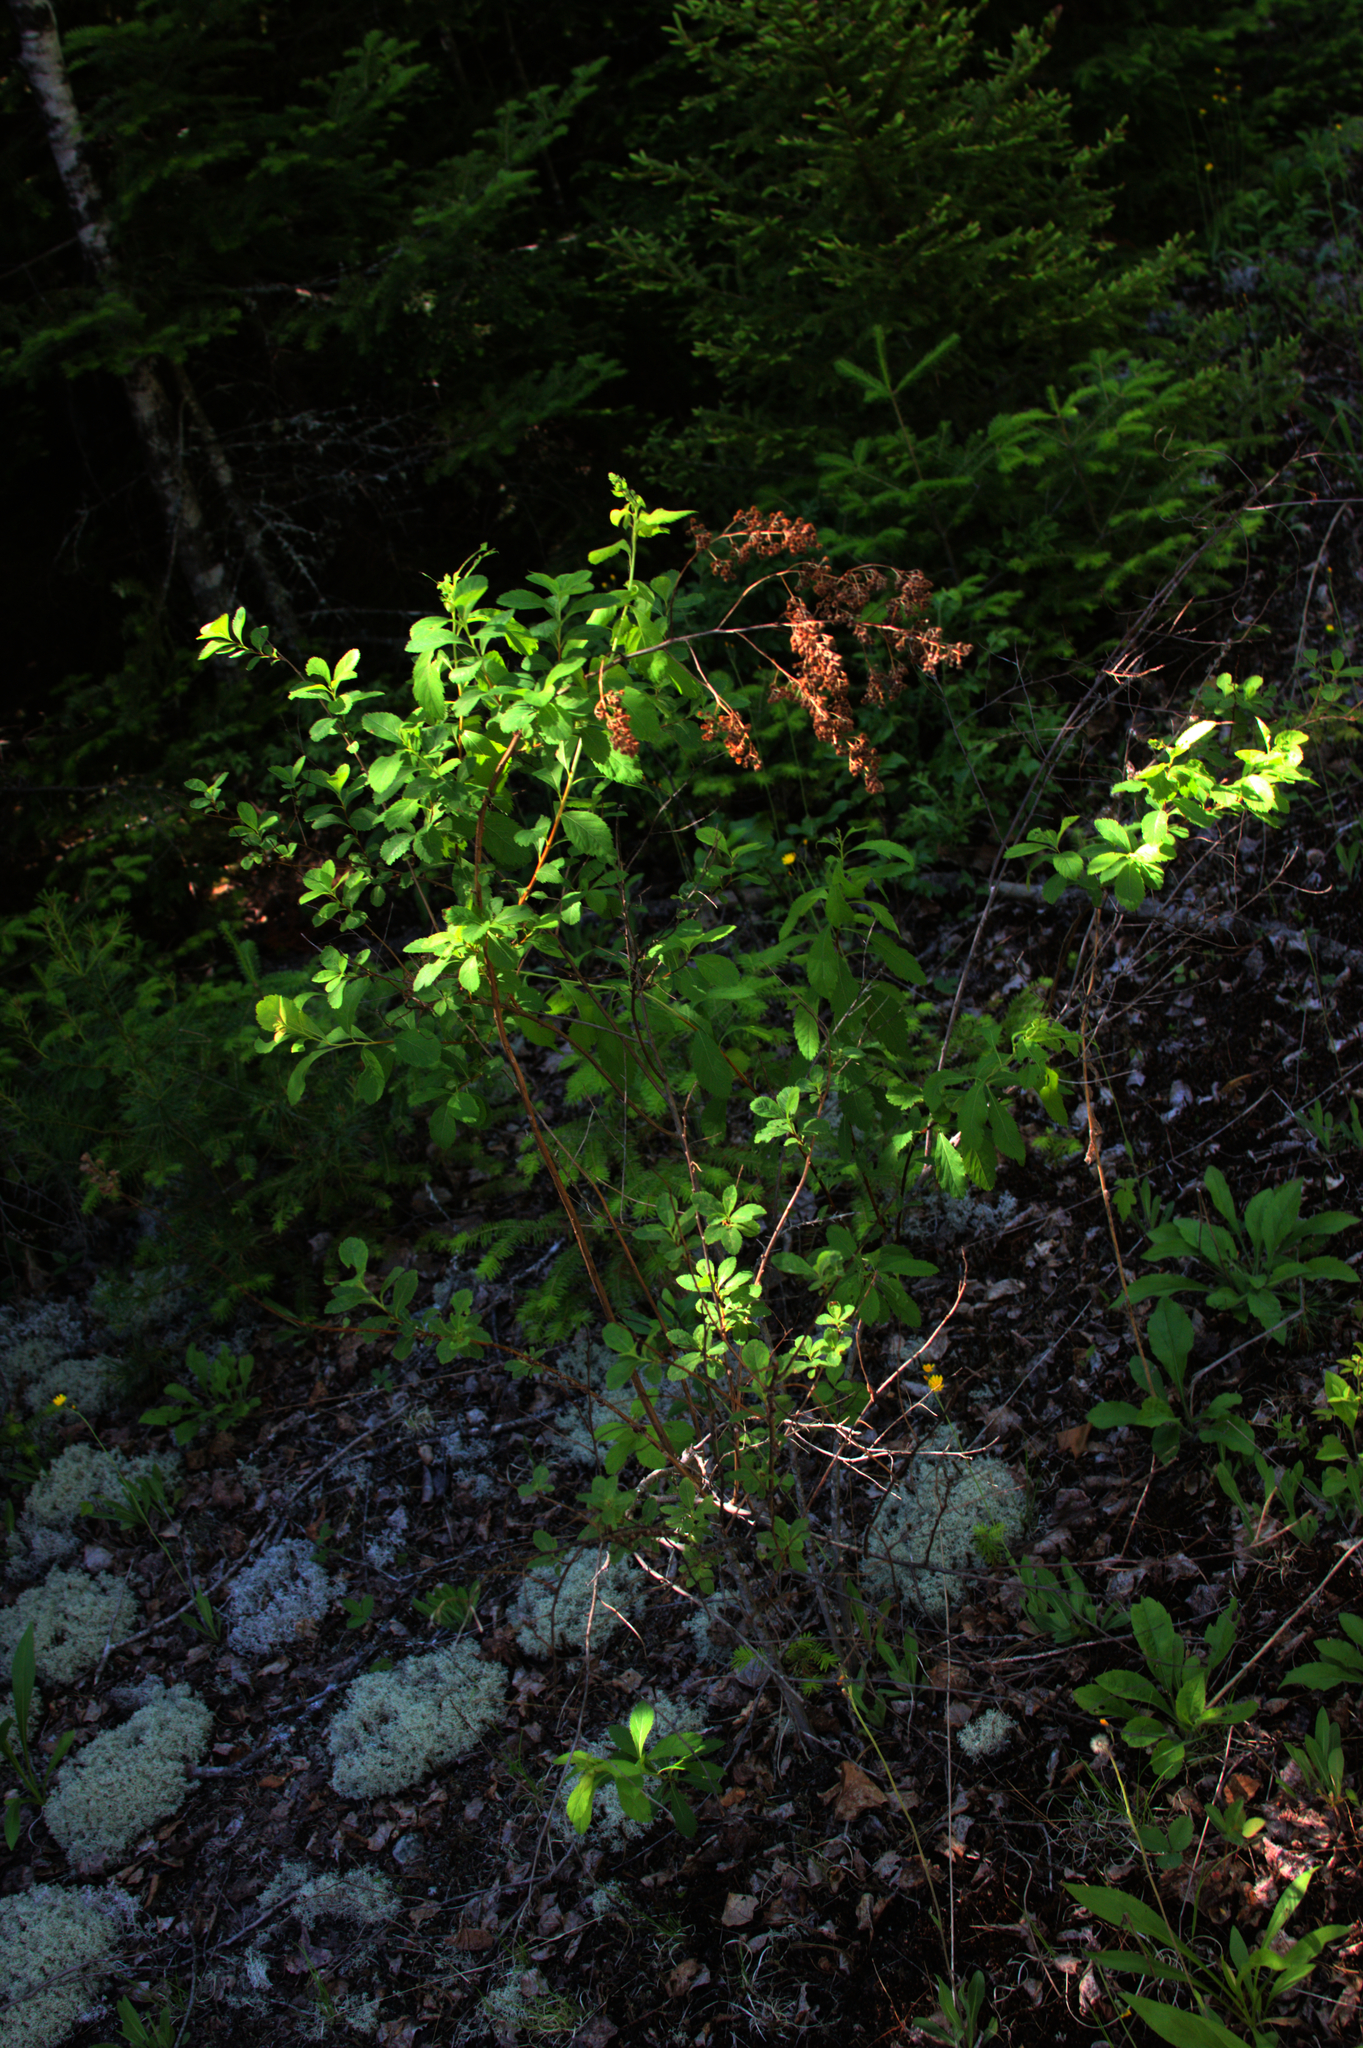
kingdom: Plantae
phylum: Tracheophyta
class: Magnoliopsida
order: Rosales
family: Rosaceae
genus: Spiraea
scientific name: Spiraea alba
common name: Pale bridewort
